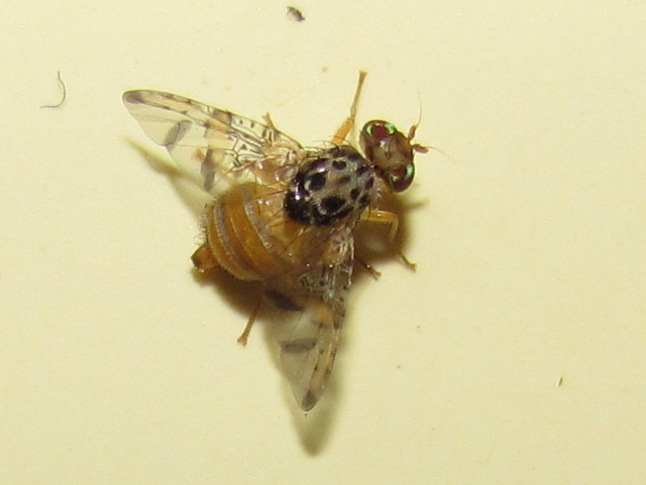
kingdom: Animalia
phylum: Arthropoda
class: Insecta
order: Diptera
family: Tephritidae
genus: Ceratitis
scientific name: Ceratitis capitata
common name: Mediterranean fruit fly
